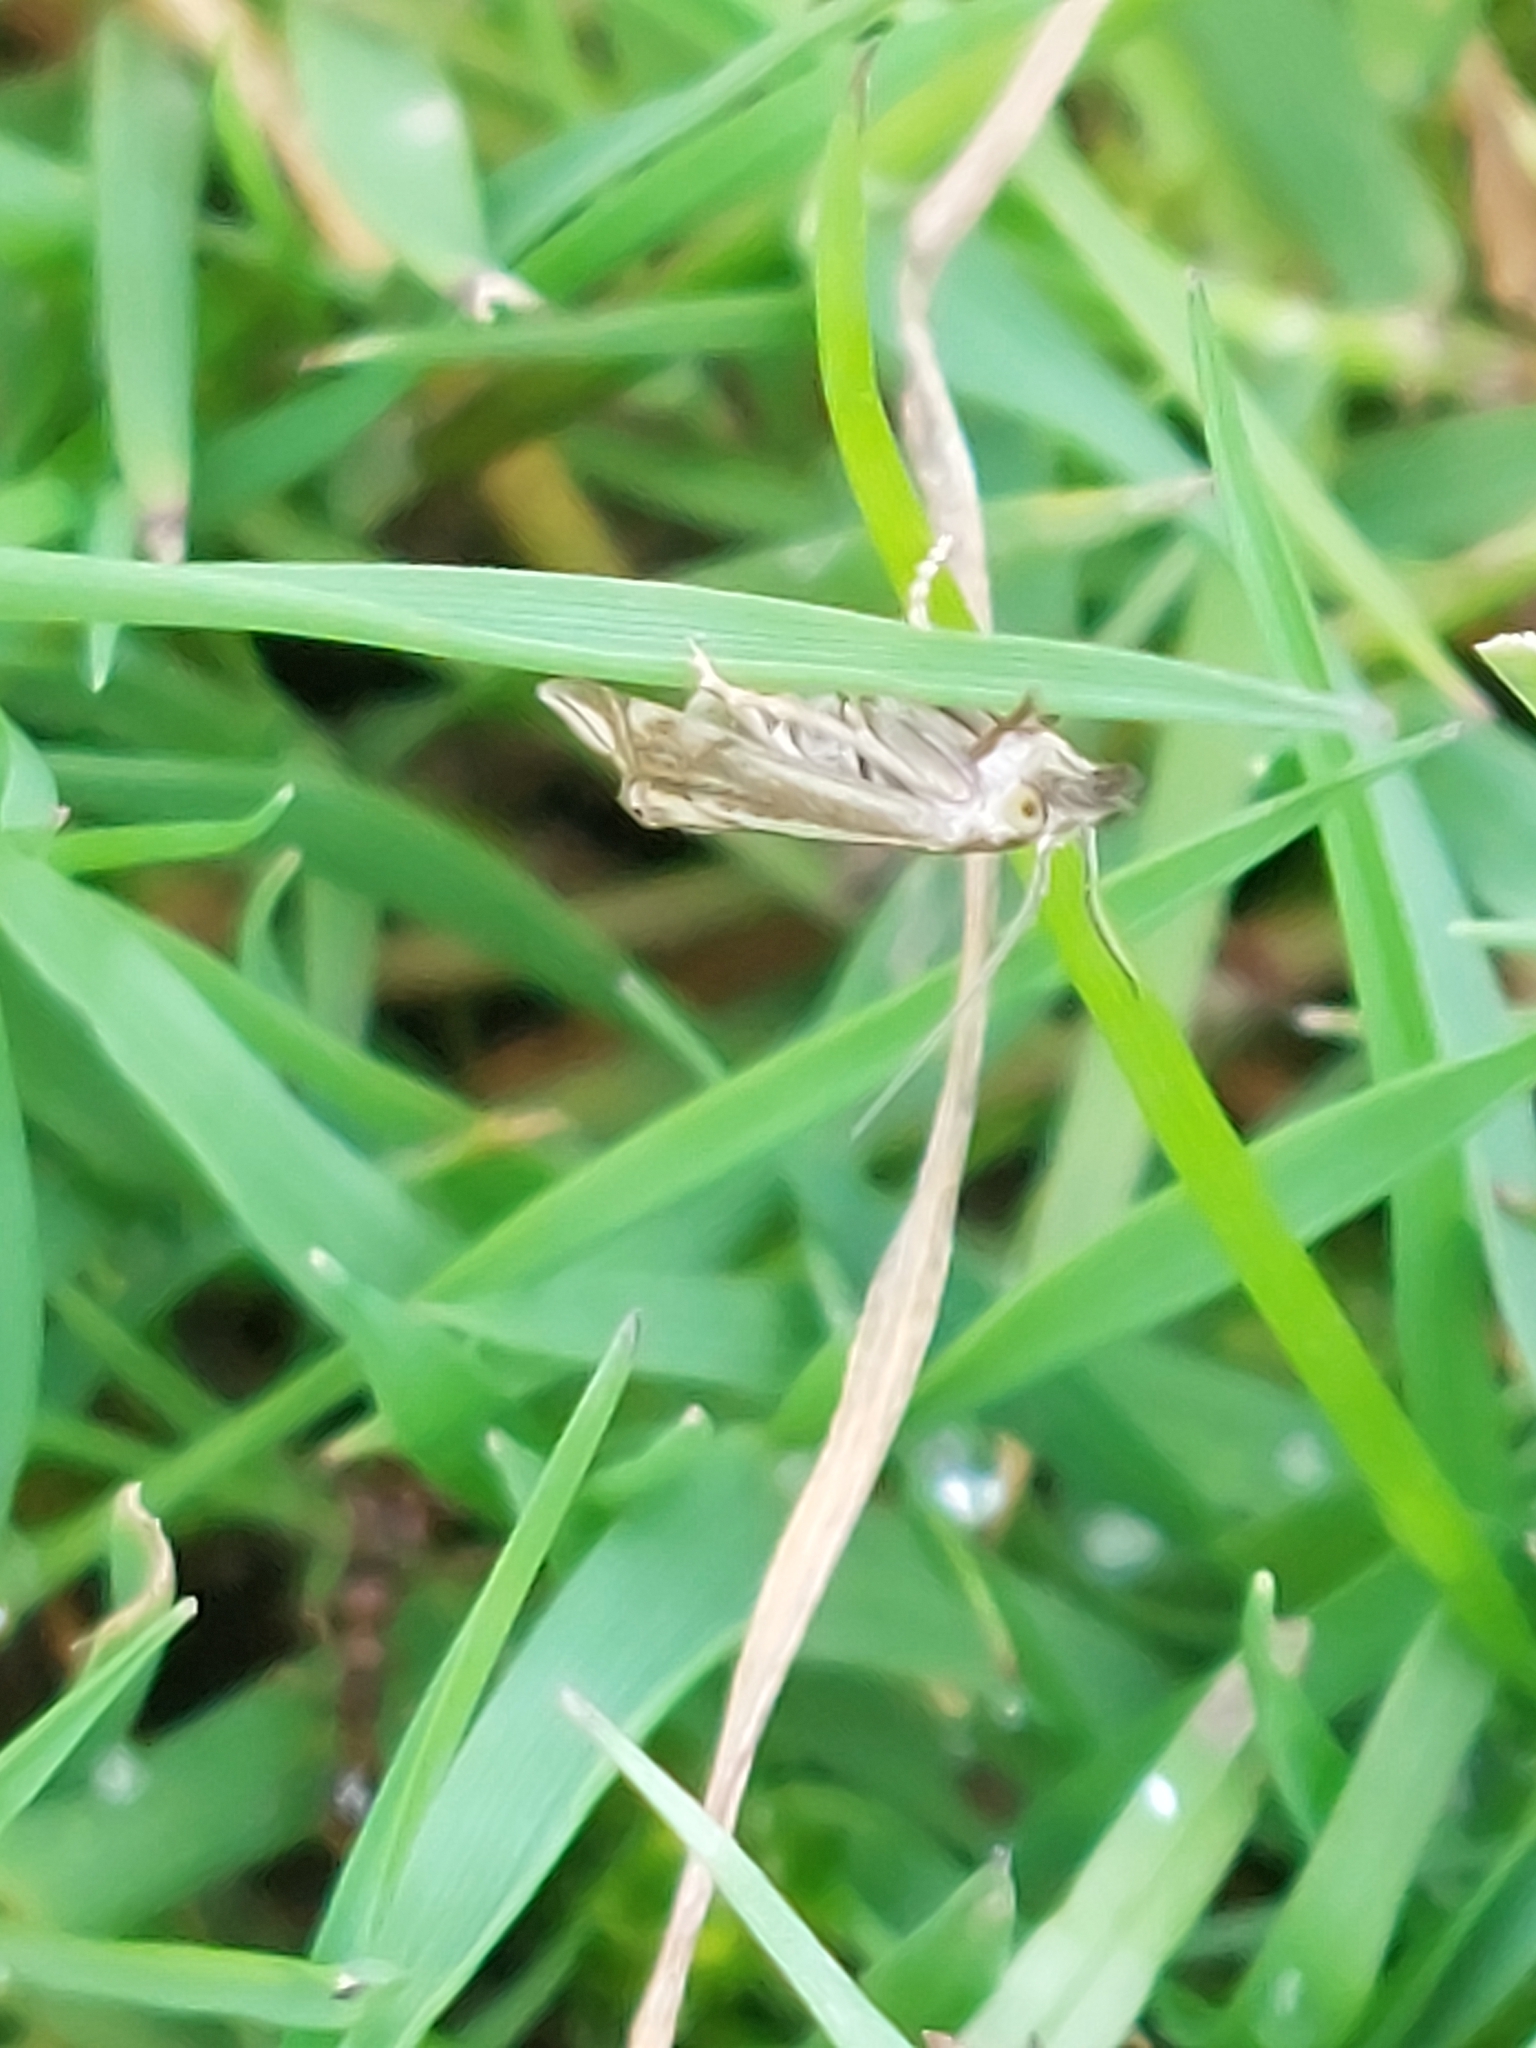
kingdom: Animalia
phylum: Arthropoda
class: Insecta
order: Lepidoptera
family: Crambidae
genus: Crambus
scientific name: Crambus nemorella
